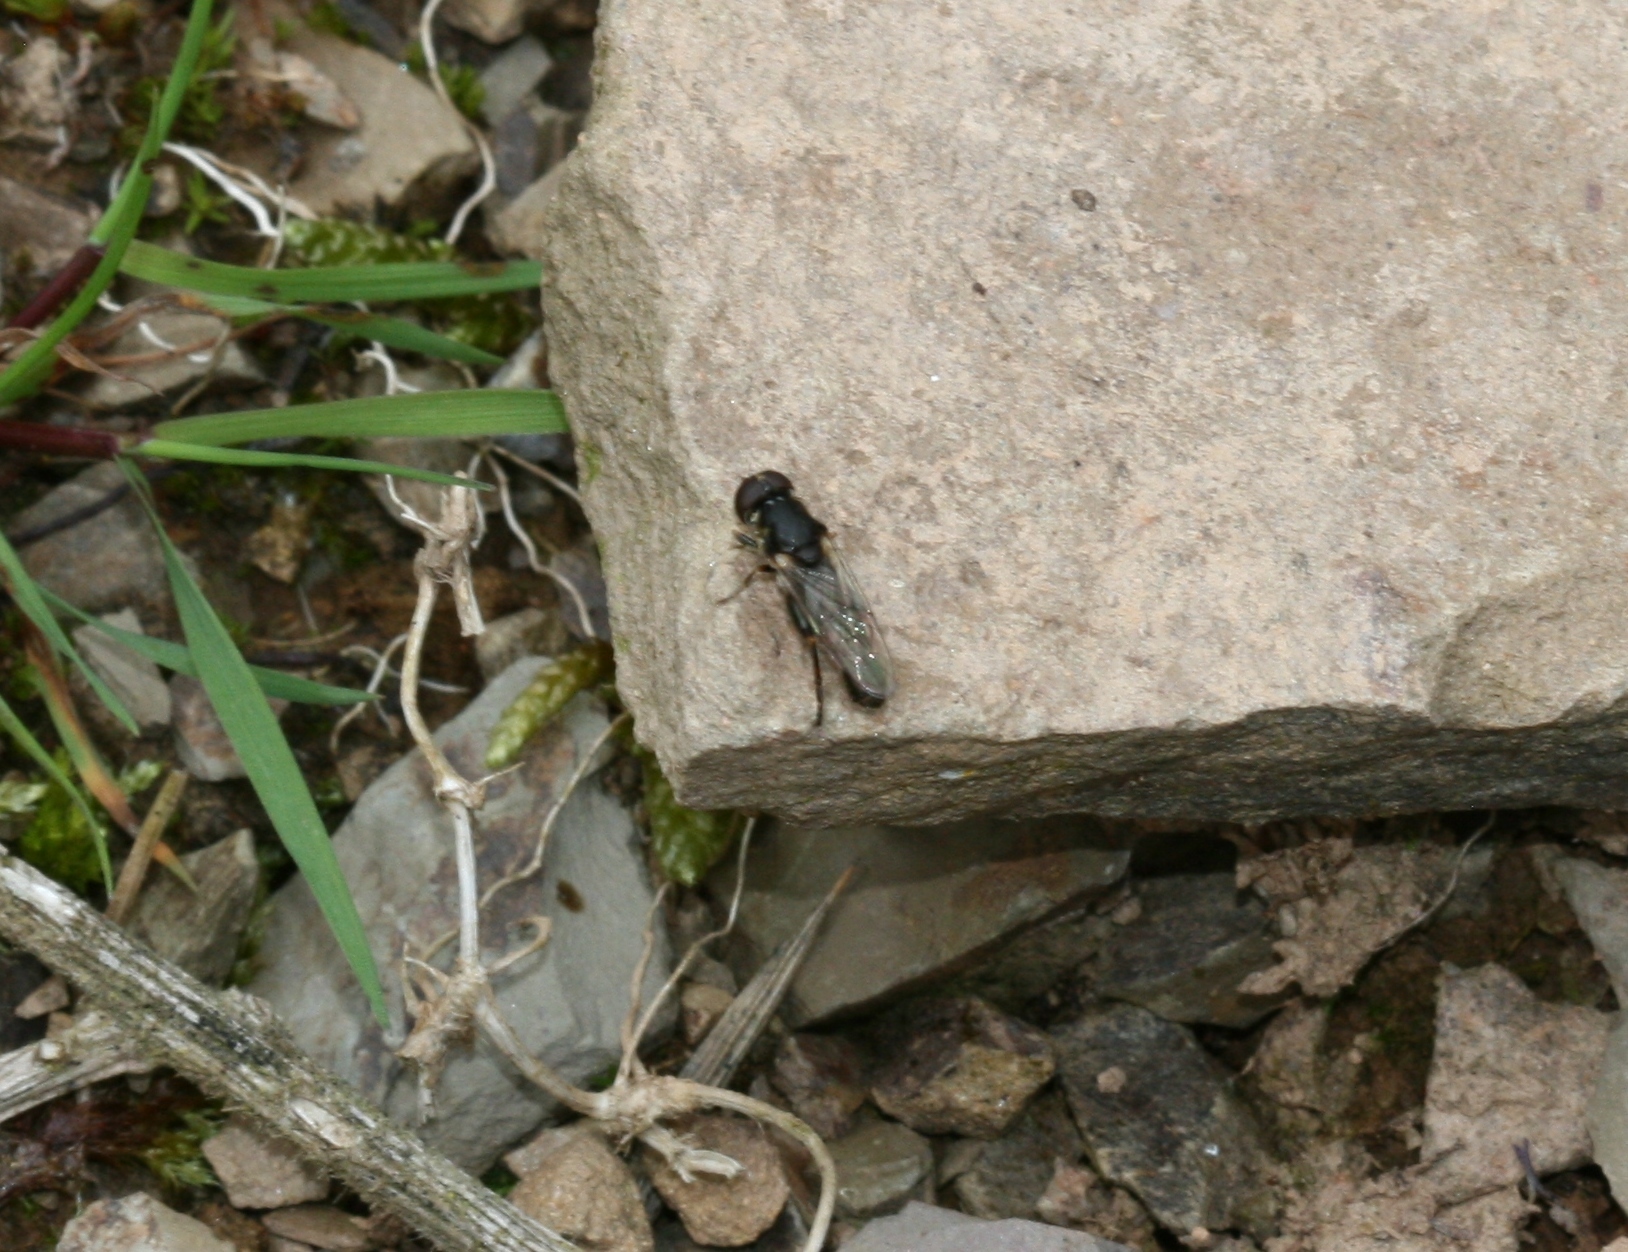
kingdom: Animalia
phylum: Arthropoda
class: Insecta
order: Diptera
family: Syrphidae
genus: Syritta
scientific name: Syritta pipiens
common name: Hover fly
